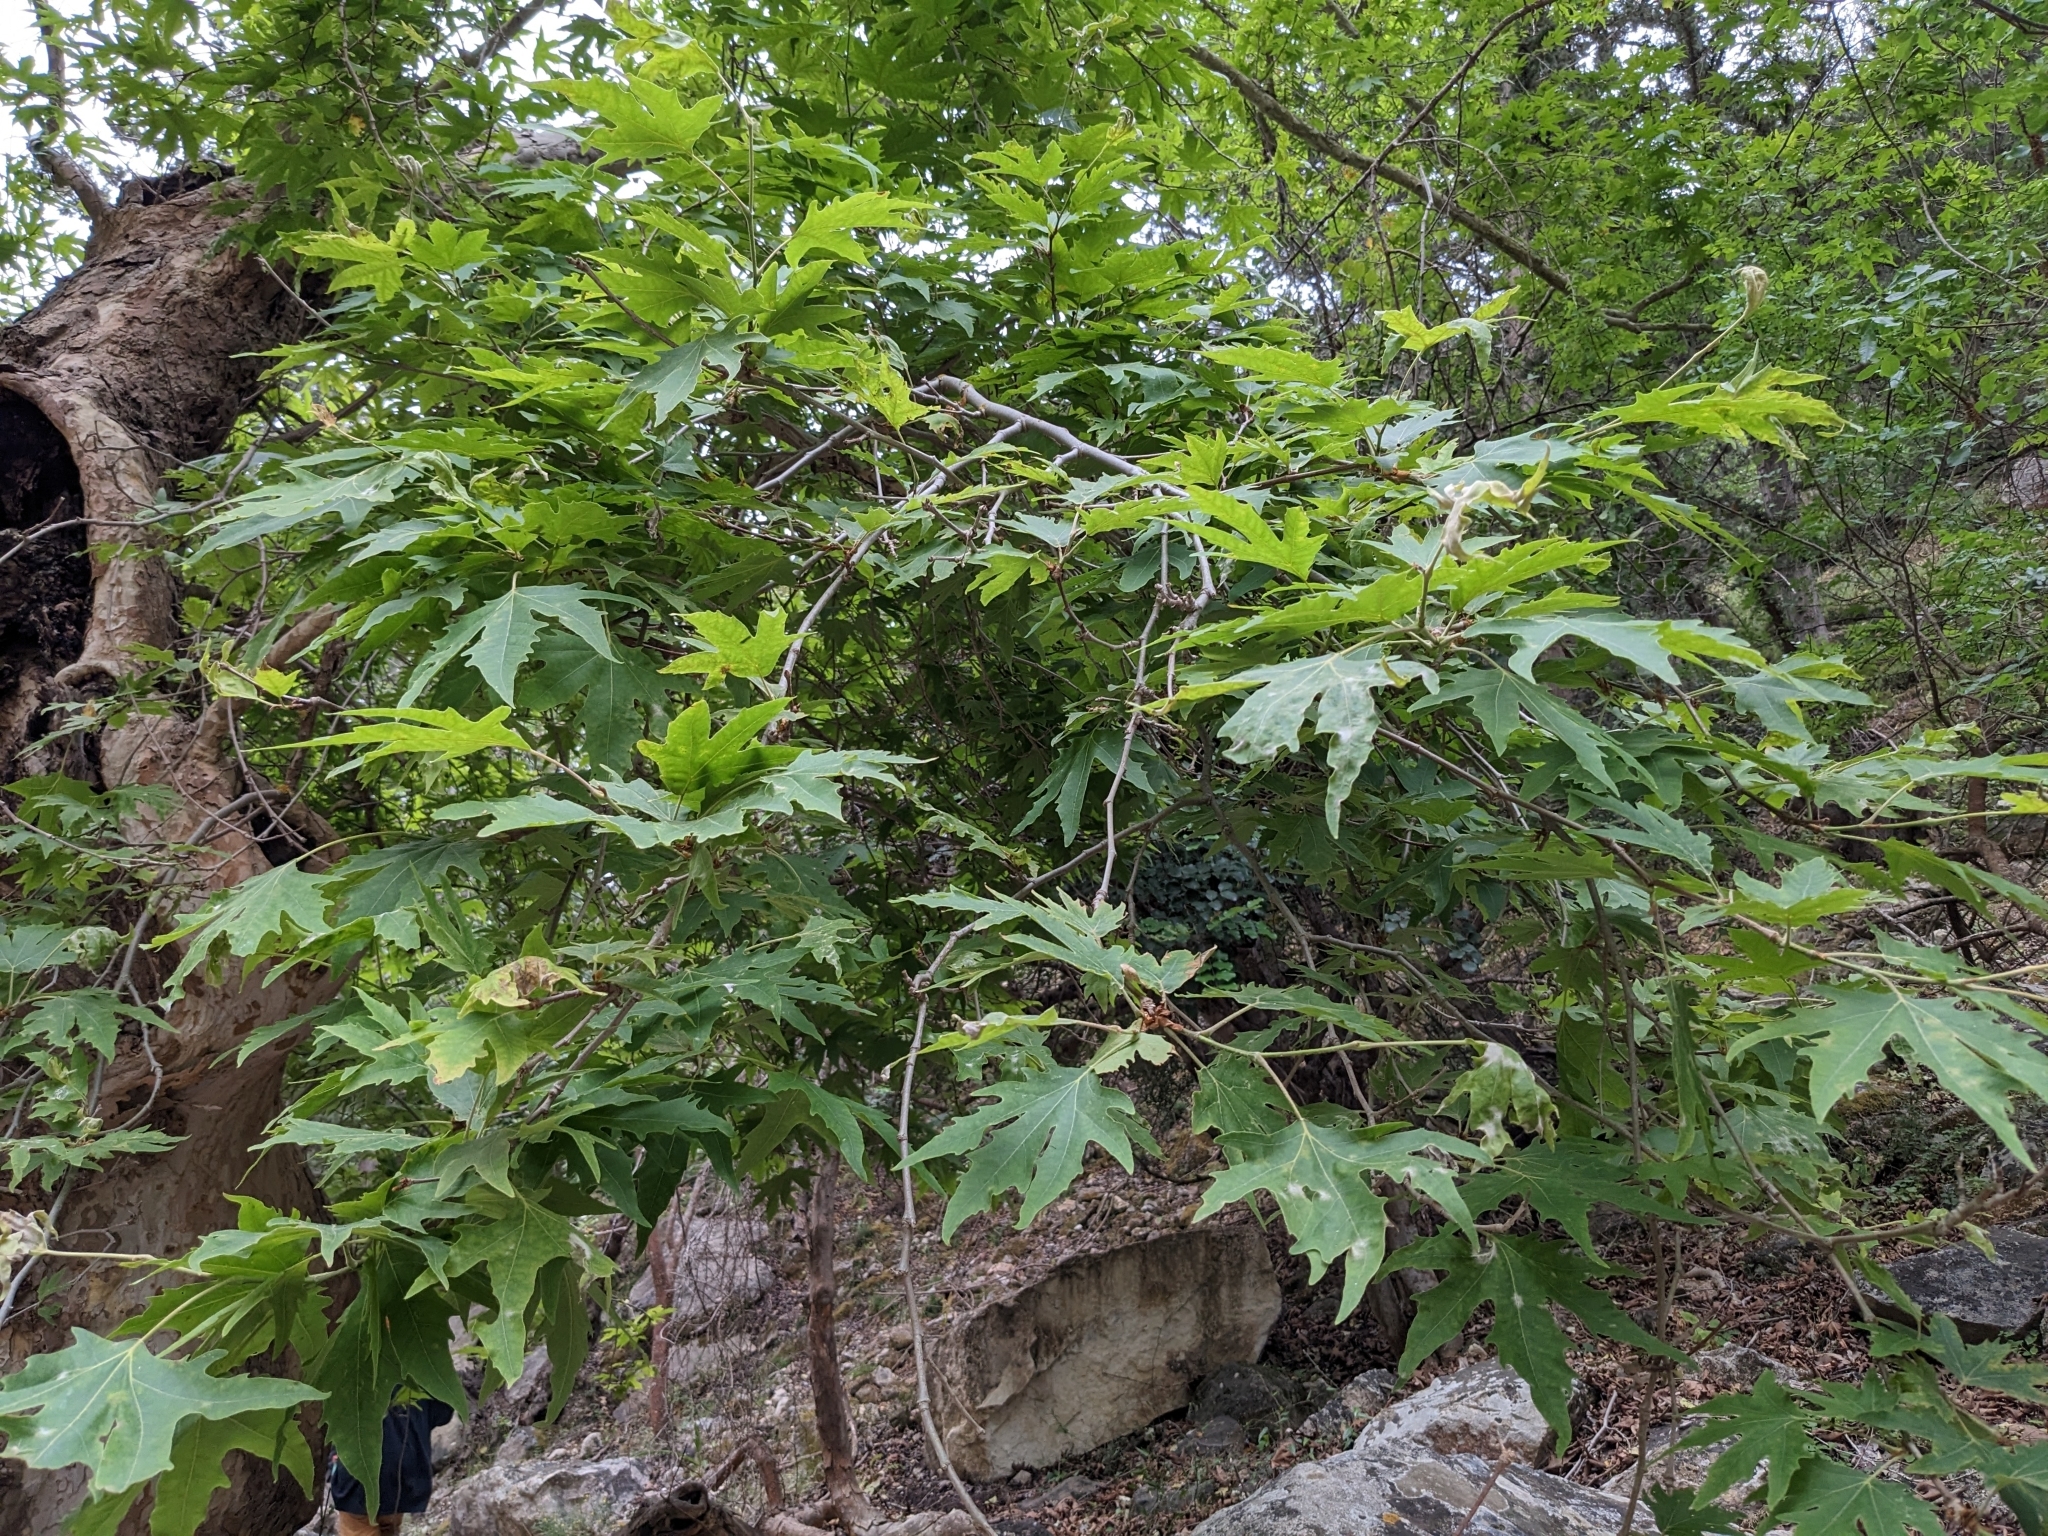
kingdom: Plantae
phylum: Tracheophyta
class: Magnoliopsida
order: Proteales
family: Platanaceae
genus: Platanus
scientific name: Platanus orientalis
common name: Oriental plane
